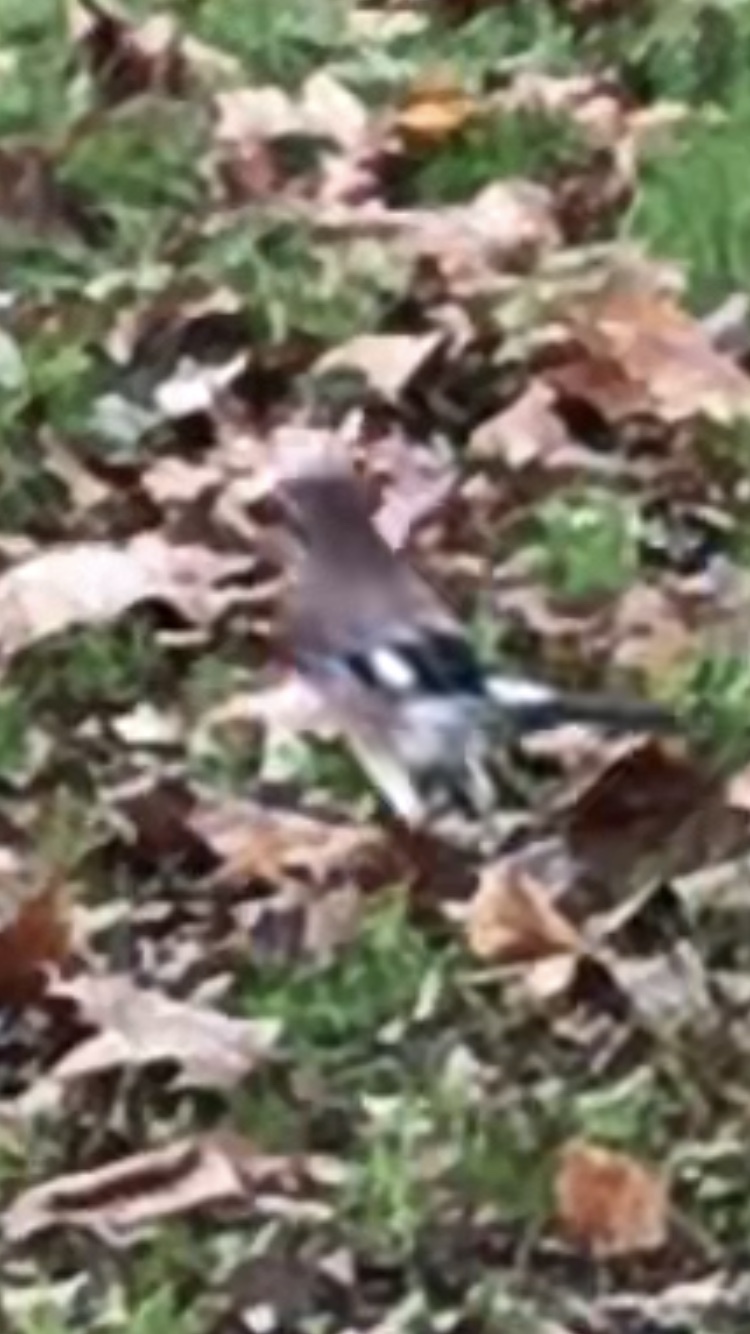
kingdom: Animalia
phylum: Chordata
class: Aves
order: Passeriformes
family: Corvidae
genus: Garrulus
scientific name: Garrulus glandarius
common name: Eurasian jay
